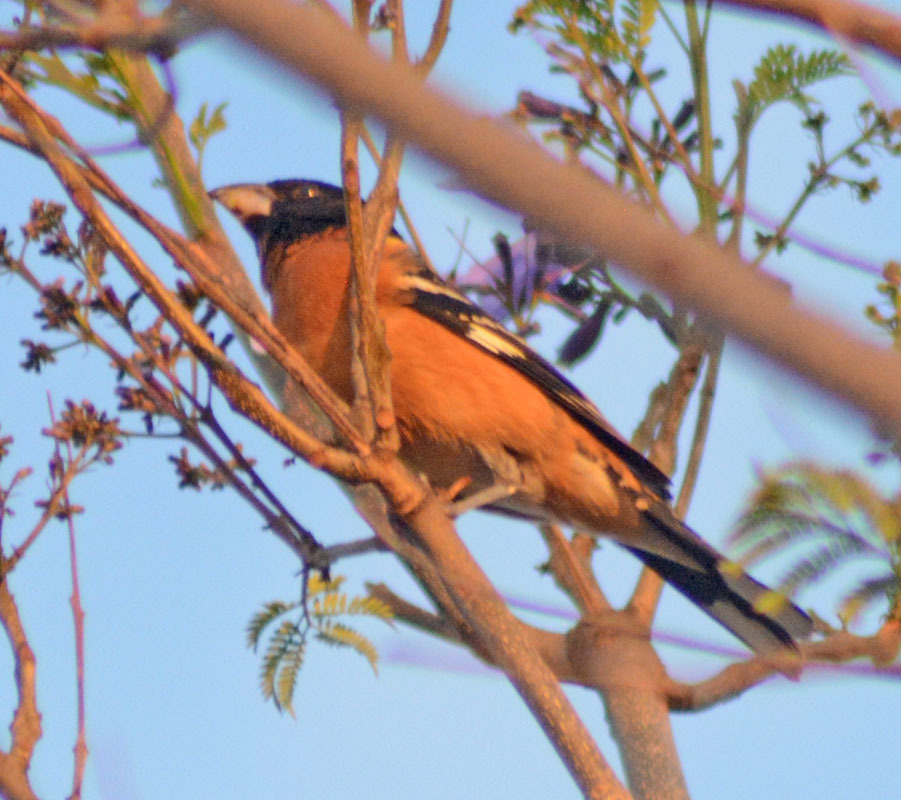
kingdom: Animalia
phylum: Chordata
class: Aves
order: Passeriformes
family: Cardinalidae
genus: Pheucticus
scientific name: Pheucticus melanocephalus
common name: Black-headed grosbeak
